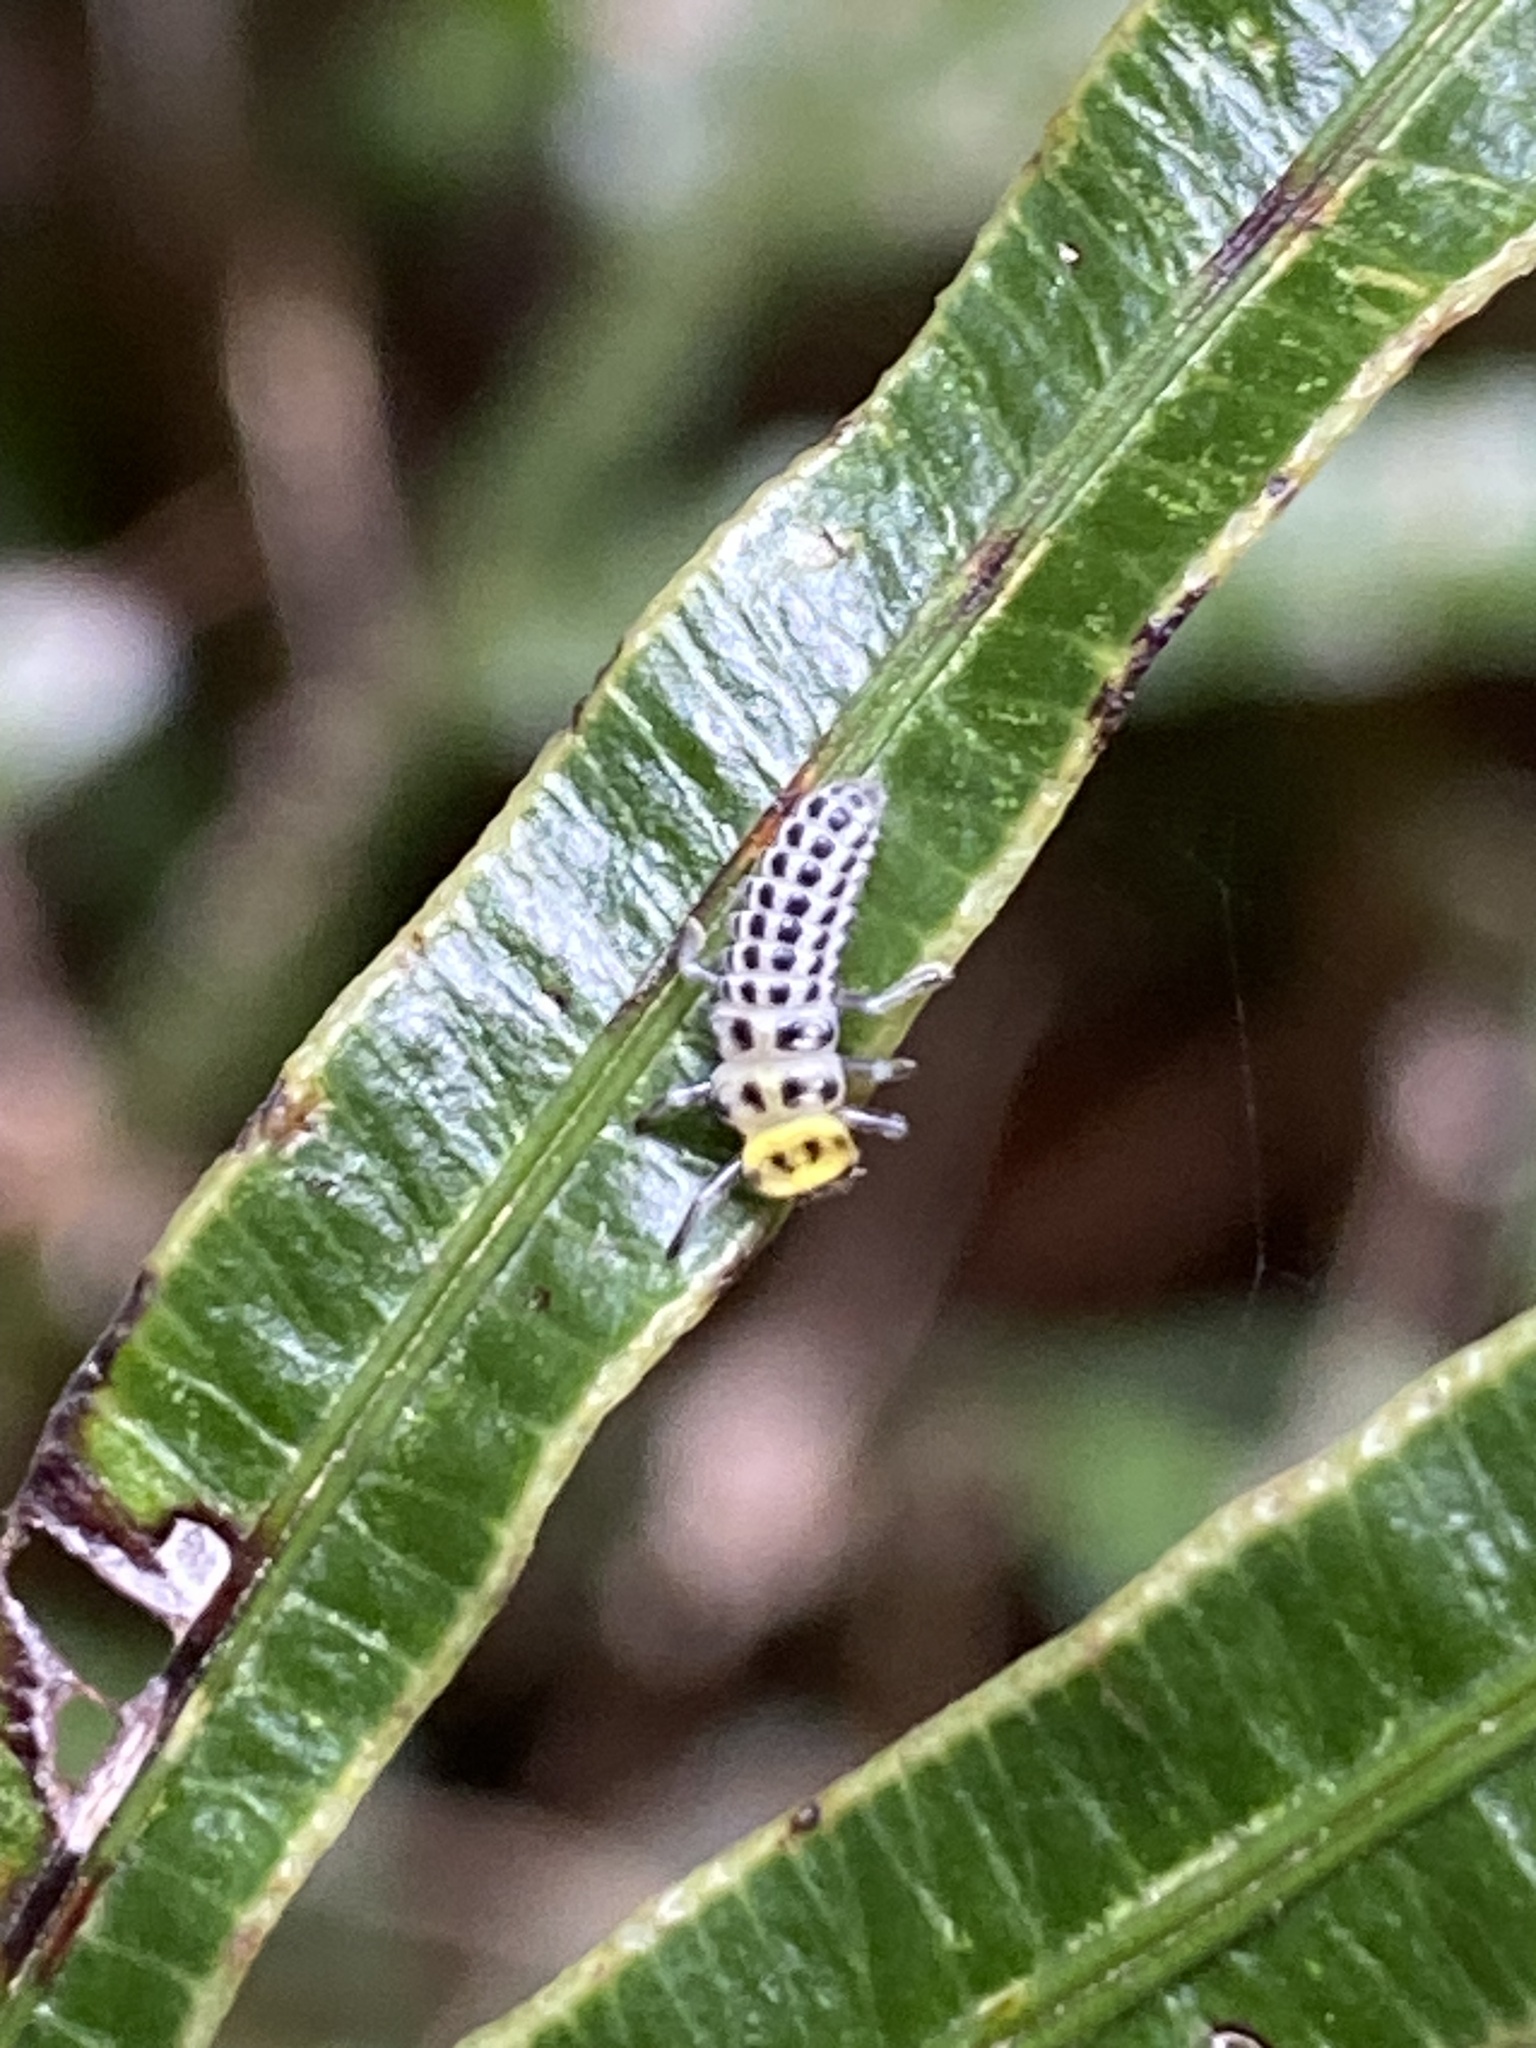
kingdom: Animalia
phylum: Arthropoda
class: Insecta
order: Coleoptera
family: Coccinellidae
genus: Illeis
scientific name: Illeis galbula
